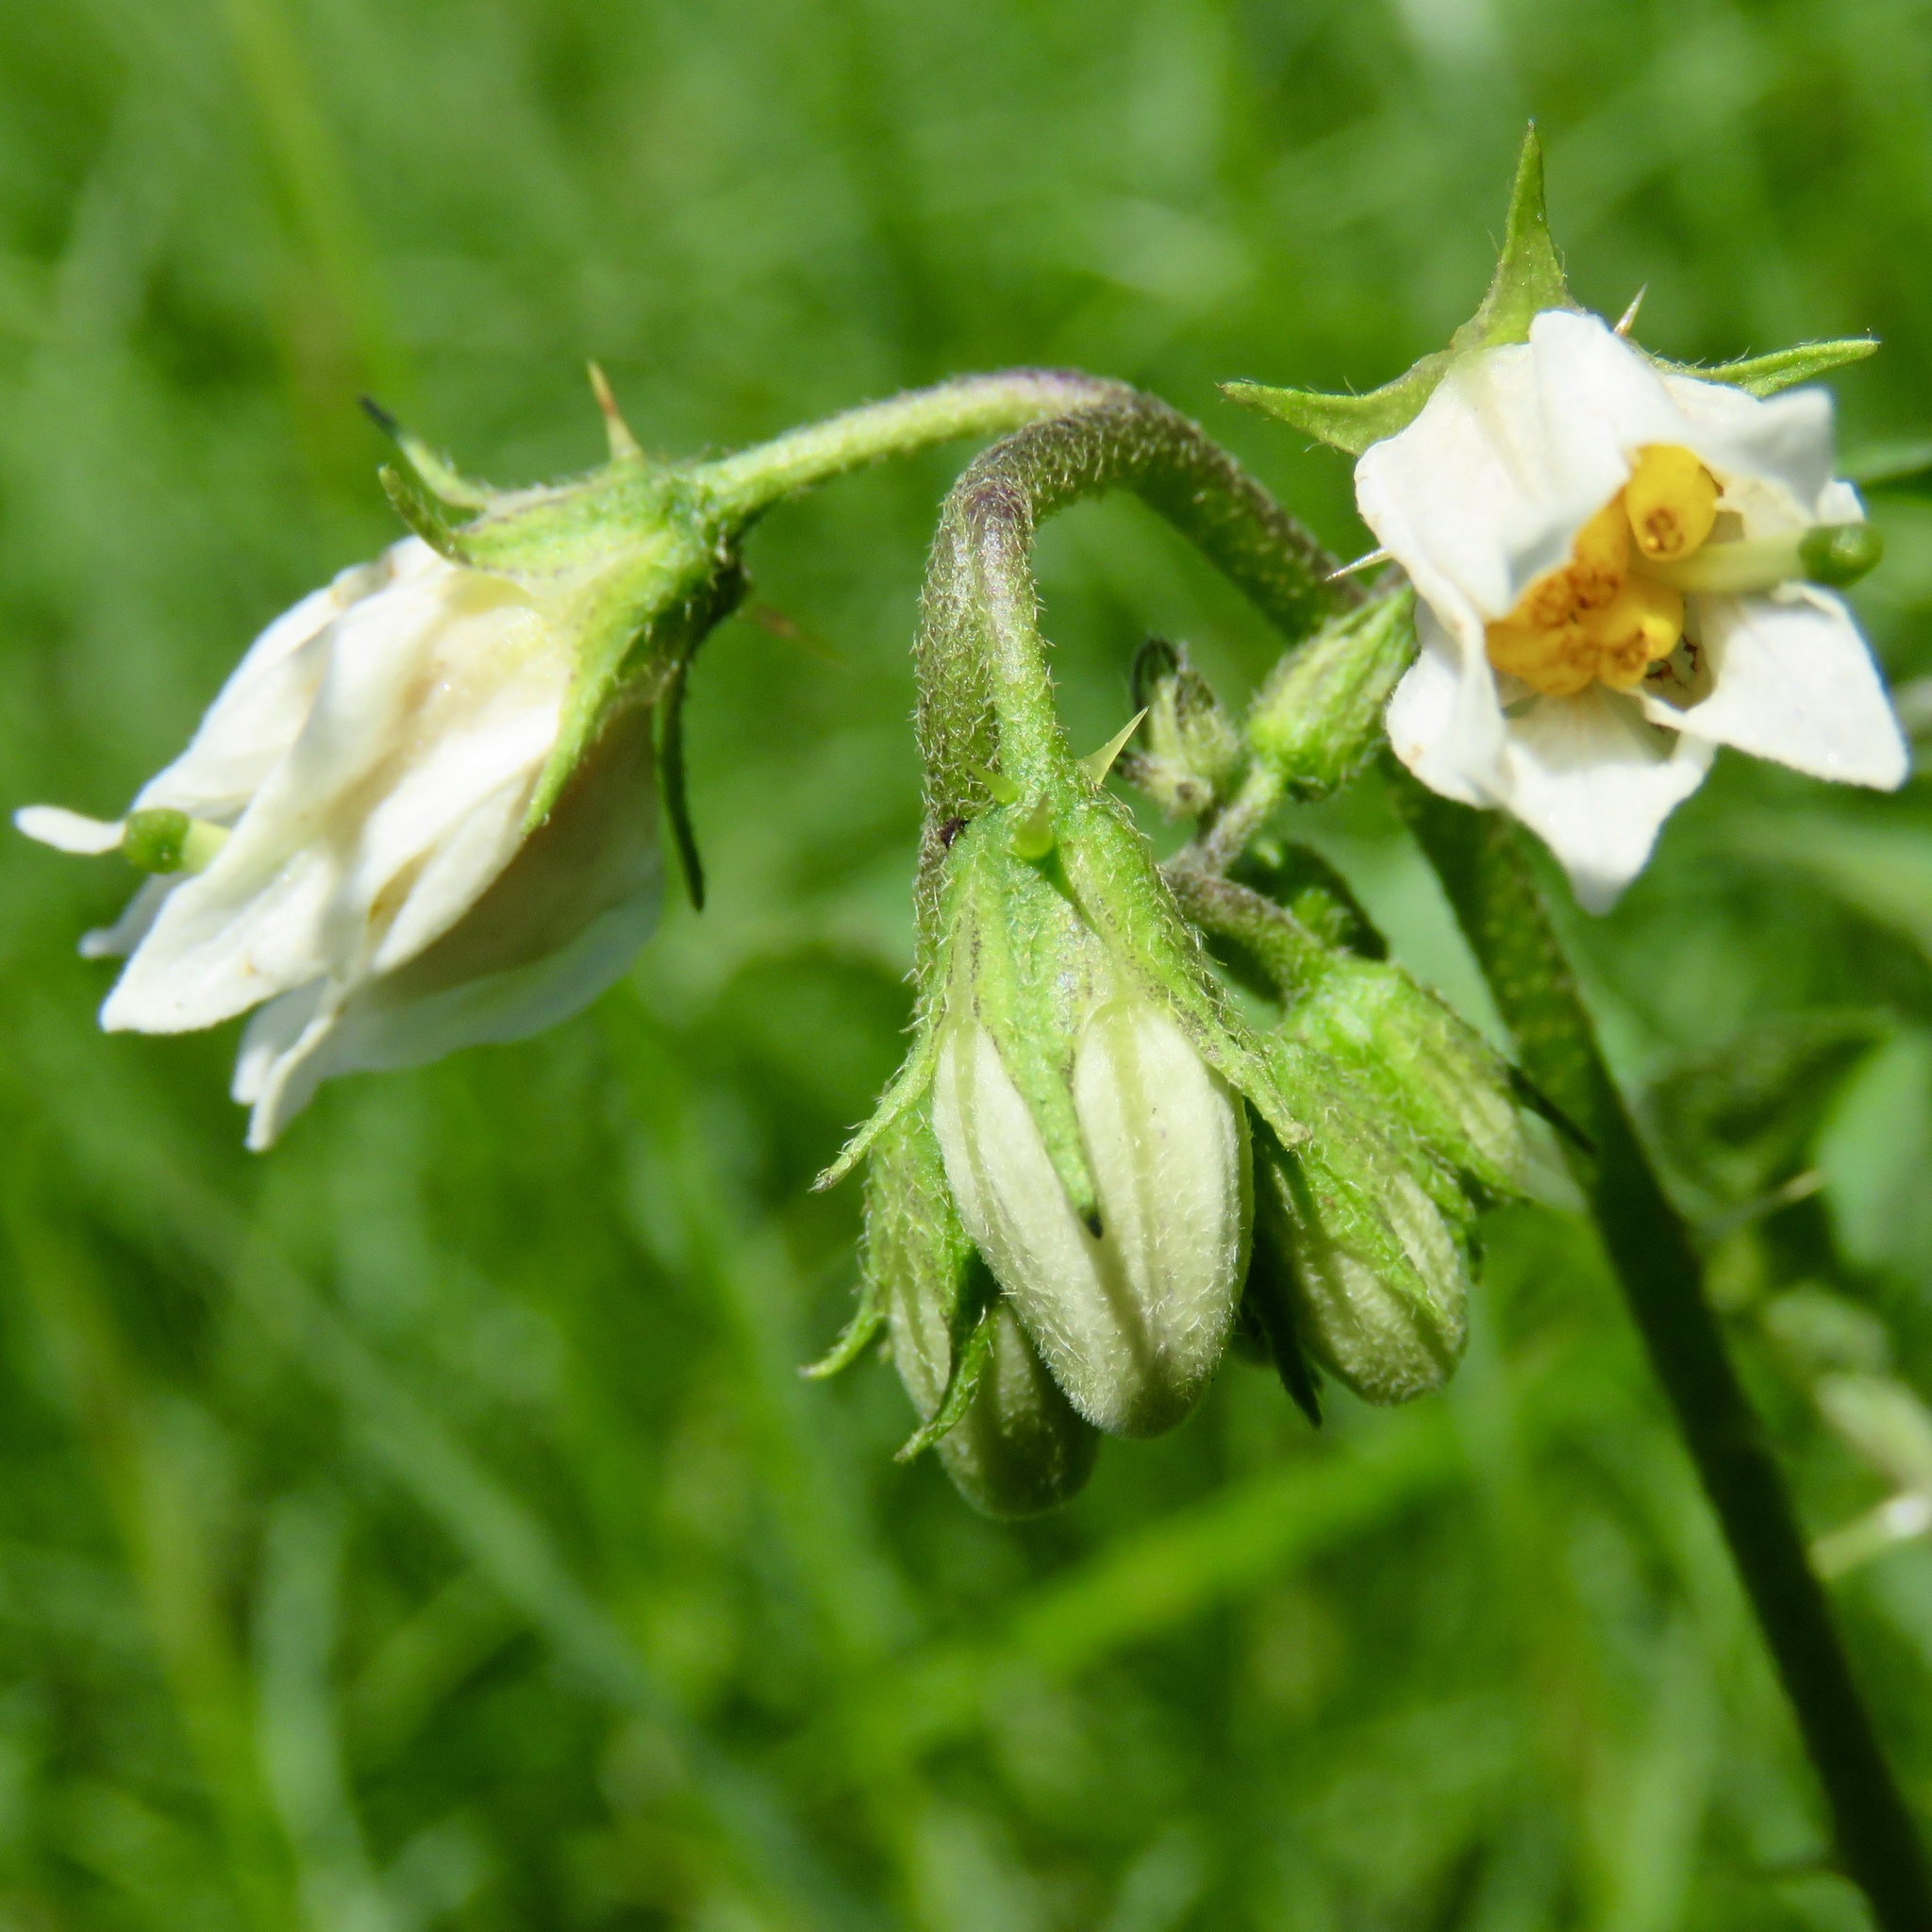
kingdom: Plantae
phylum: Tracheophyta
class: Magnoliopsida
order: Solanales
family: Solanaceae
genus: Solanum
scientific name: Solanum carolinense
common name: Horse-nettle
